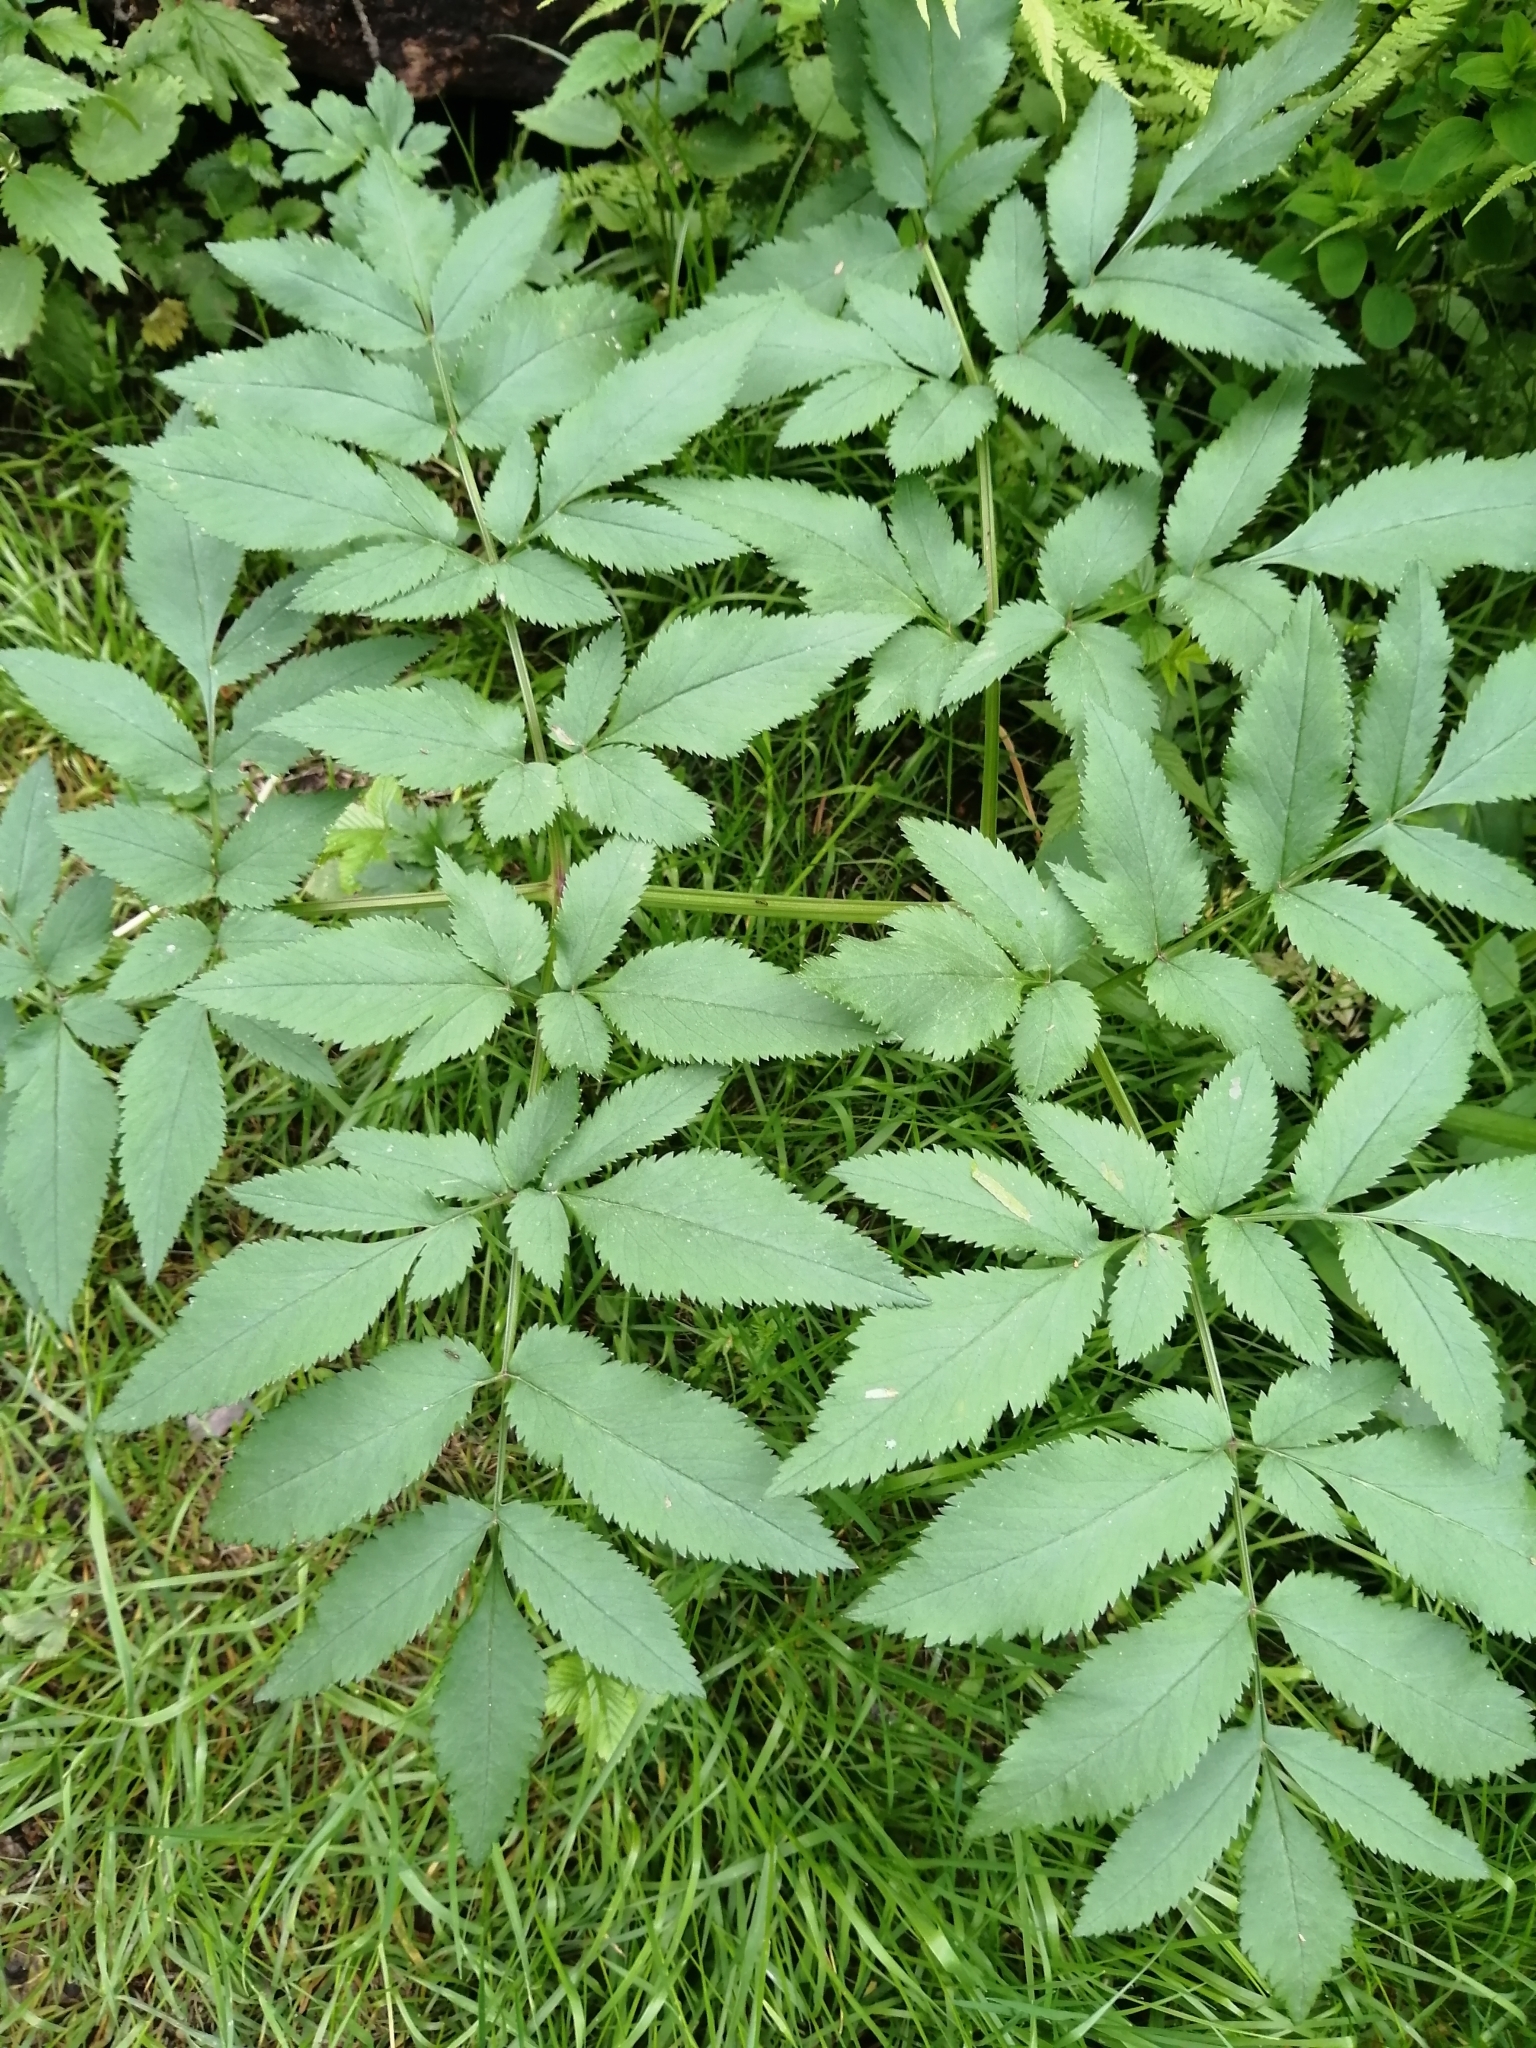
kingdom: Plantae
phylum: Tracheophyta
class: Magnoliopsida
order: Apiales
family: Apiaceae
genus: Angelica
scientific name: Angelica sylvestris
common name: Wild angelica
